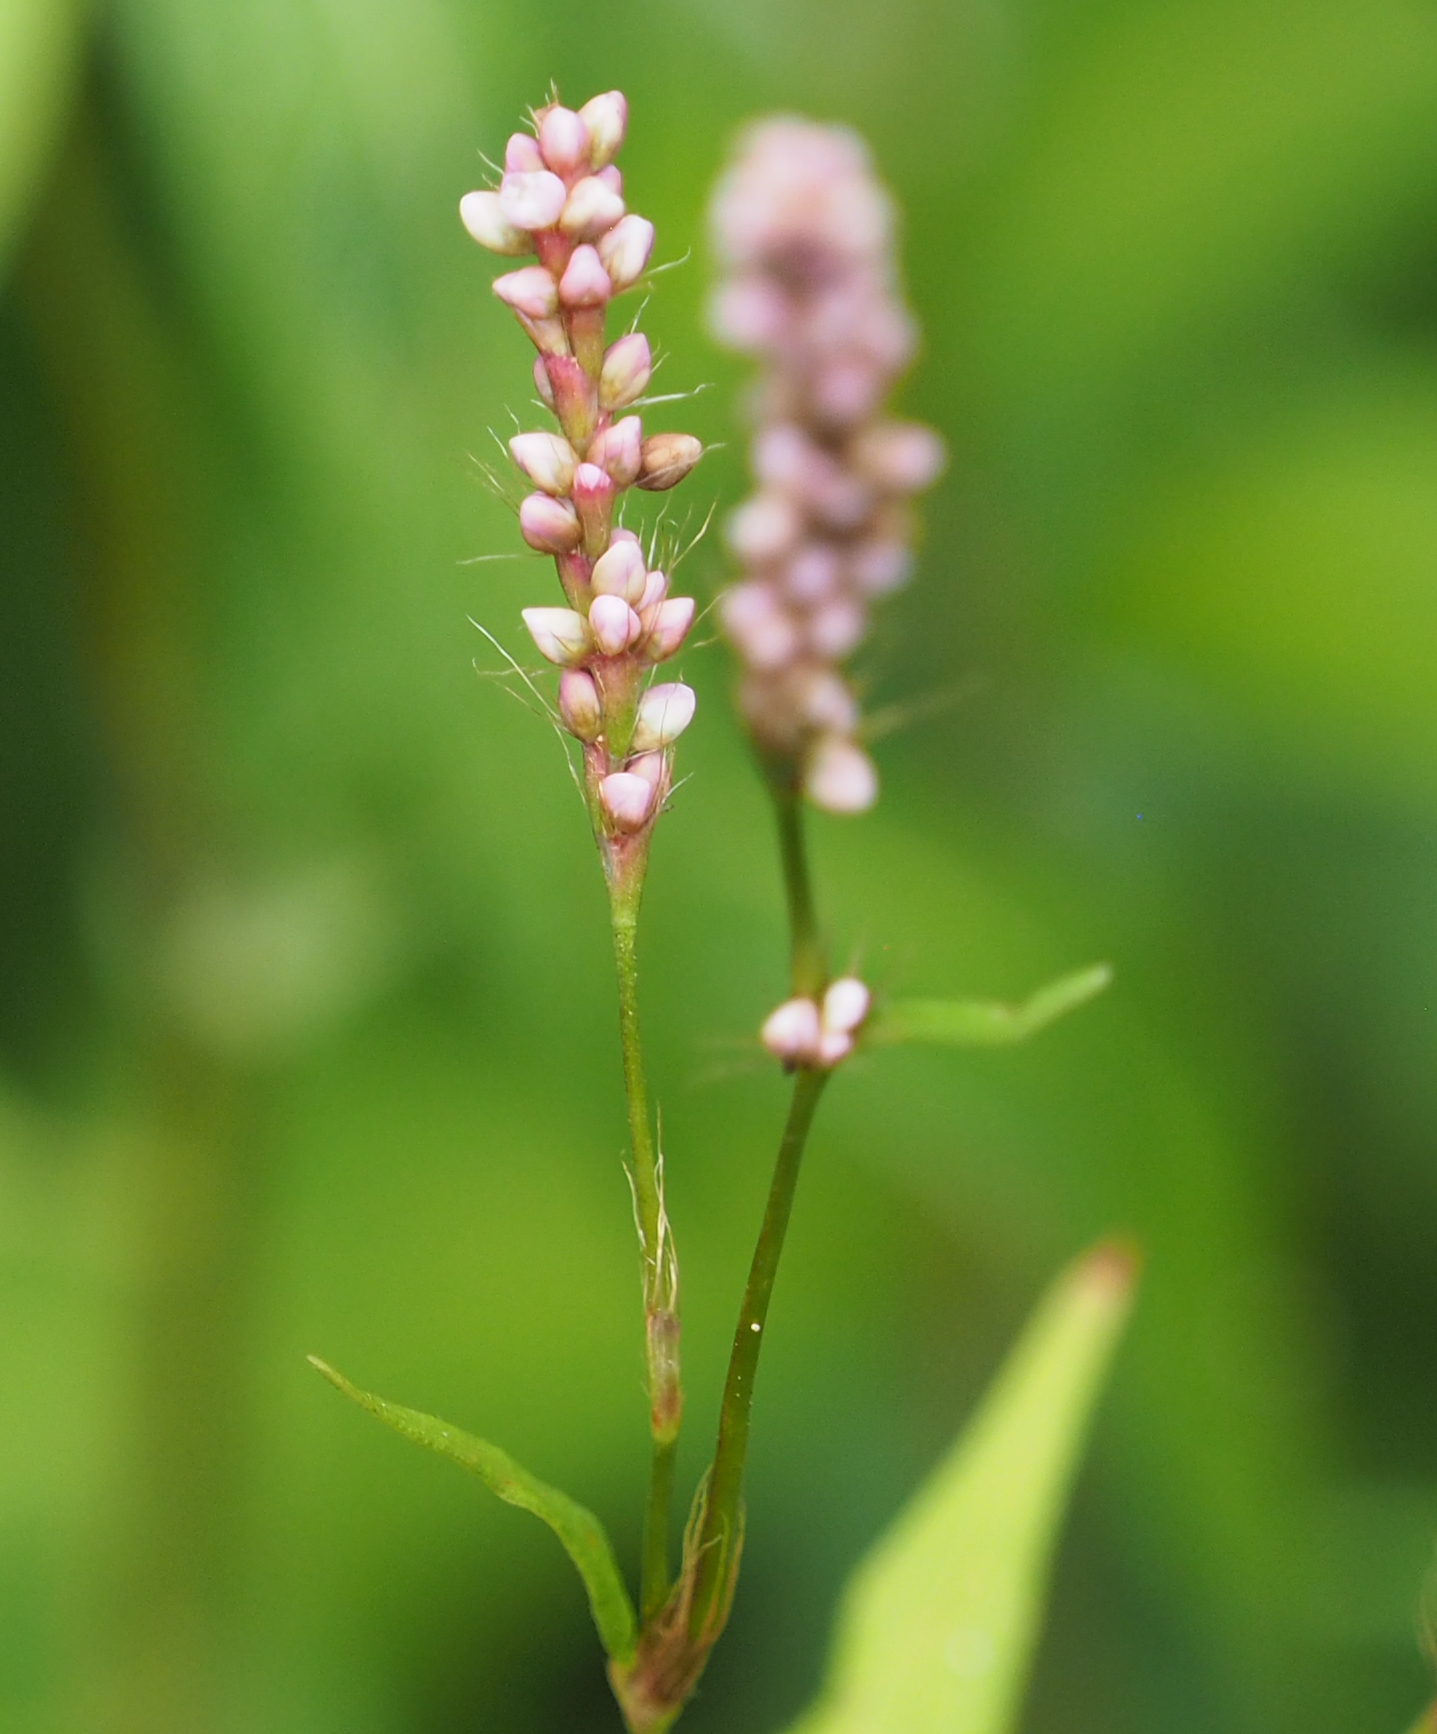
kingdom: Plantae
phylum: Tracheophyta
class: Magnoliopsida
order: Caryophyllales
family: Polygonaceae
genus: Persicaria
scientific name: Persicaria longiseta
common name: Bristly lady's-thumb
